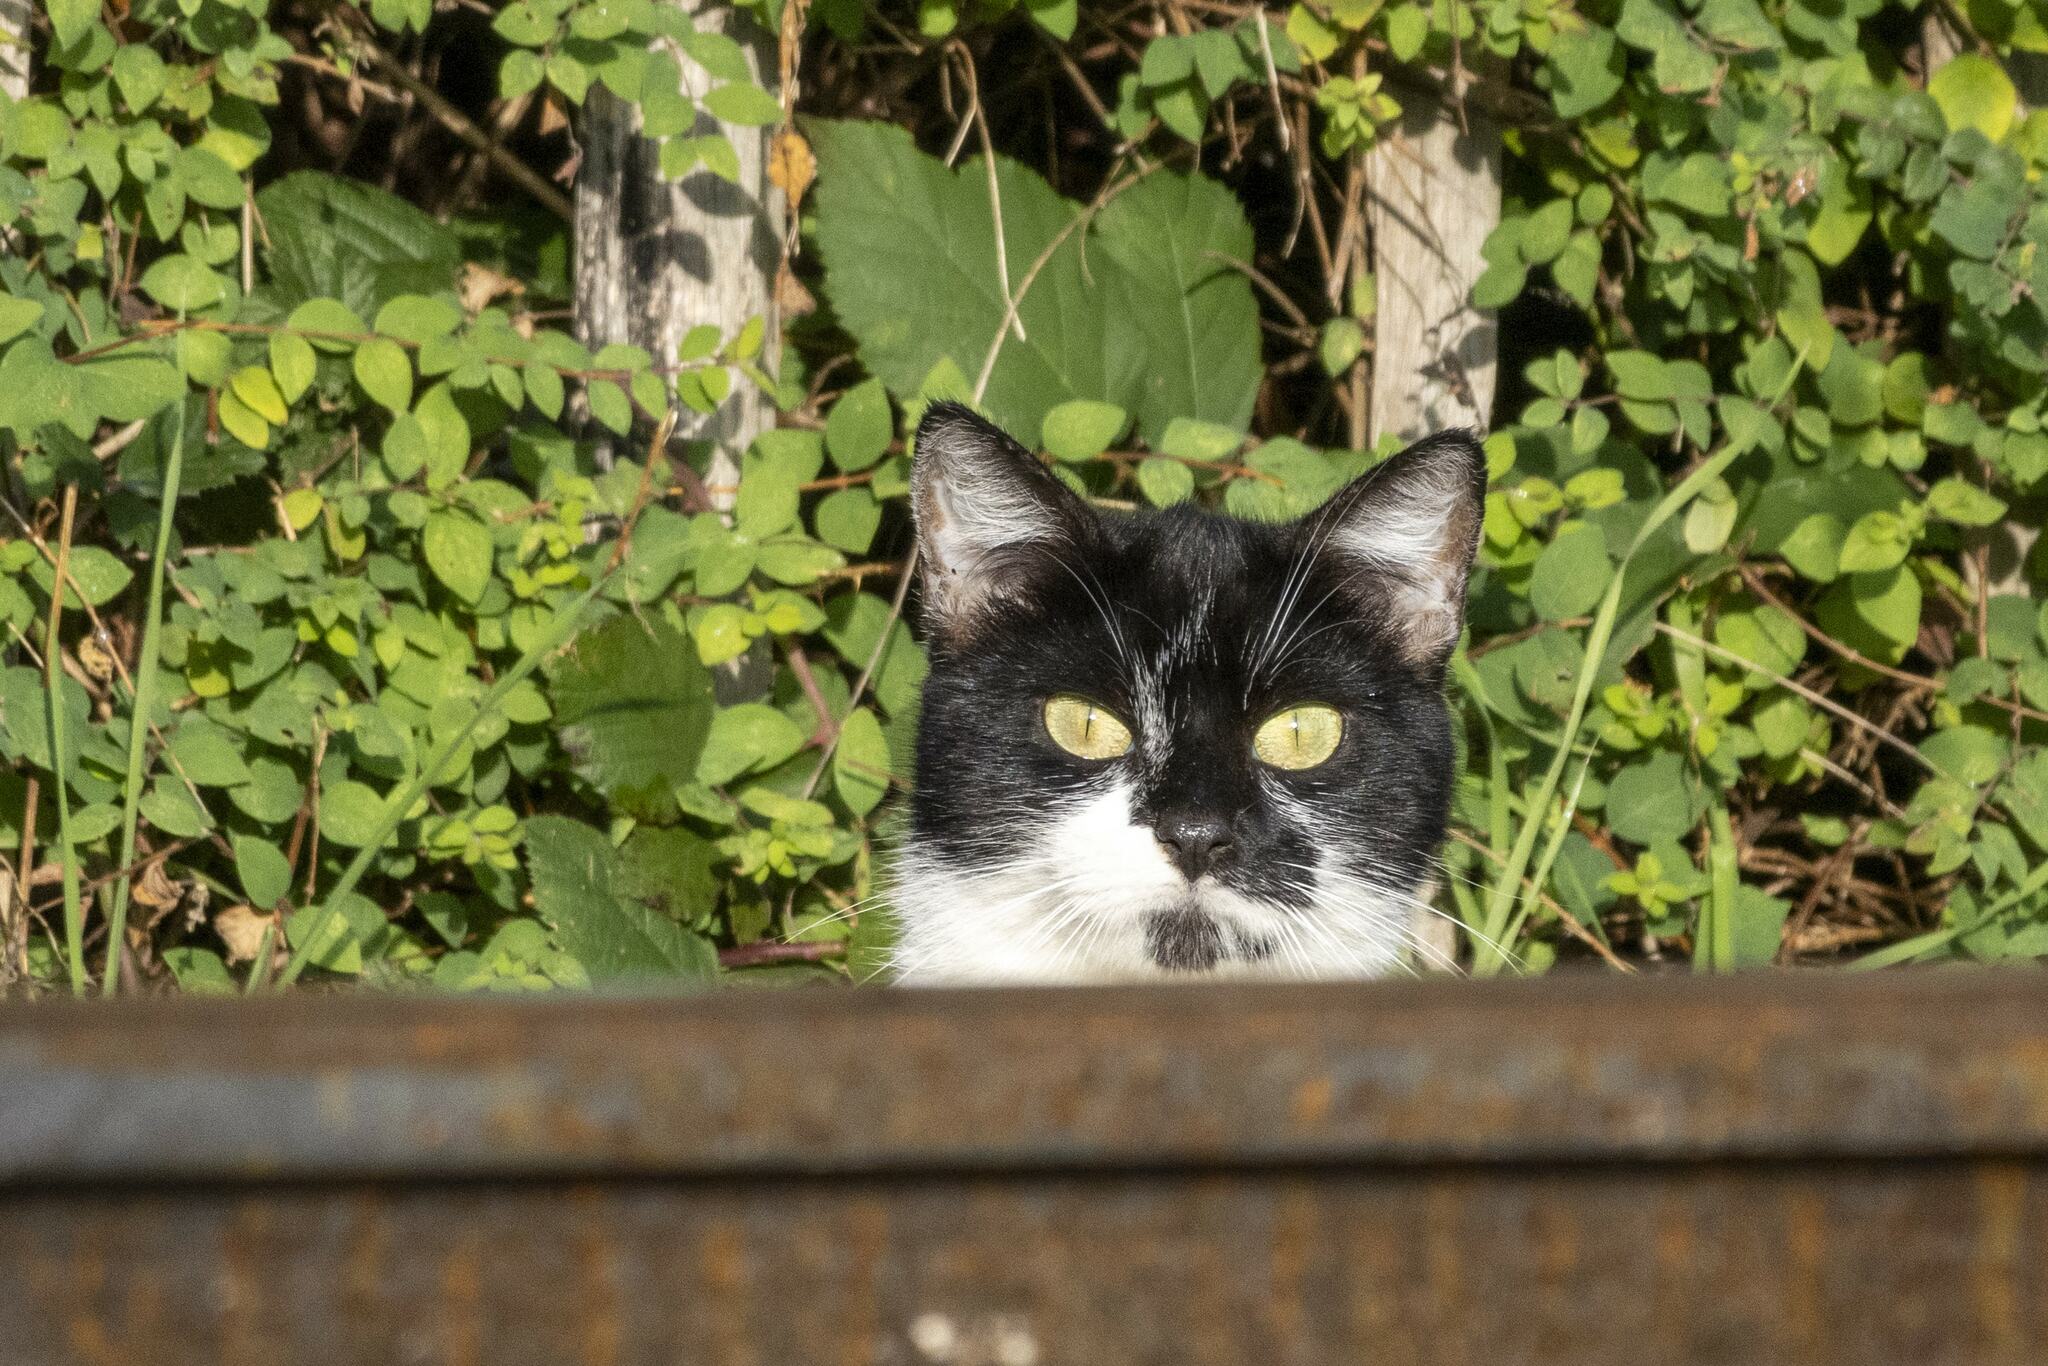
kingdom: Animalia
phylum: Chordata
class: Mammalia
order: Carnivora
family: Felidae
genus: Felis
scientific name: Felis catus
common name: Domestic cat
